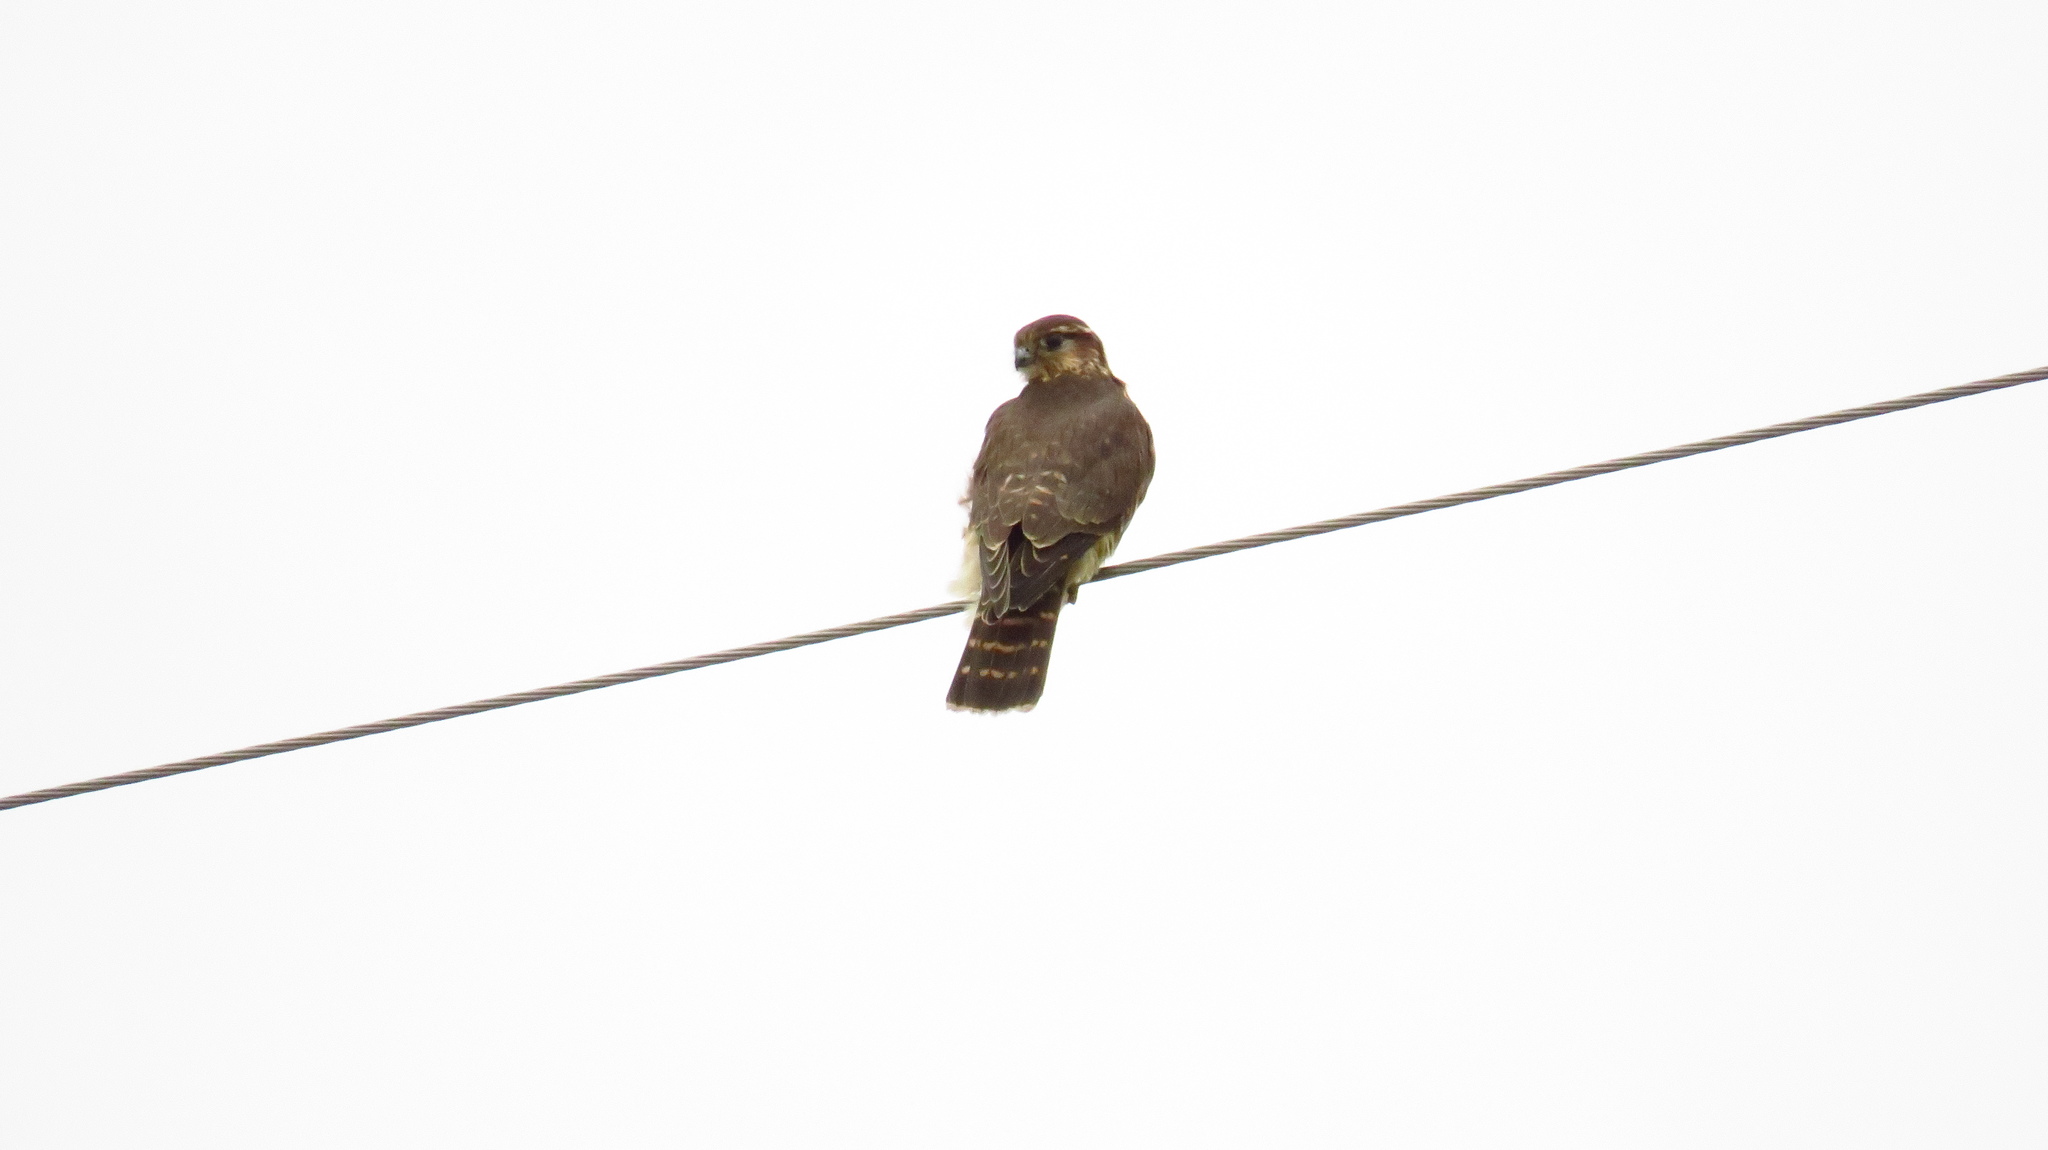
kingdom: Animalia
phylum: Chordata
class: Aves
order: Falconiformes
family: Falconidae
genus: Falco
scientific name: Falco columbarius
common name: Merlin
